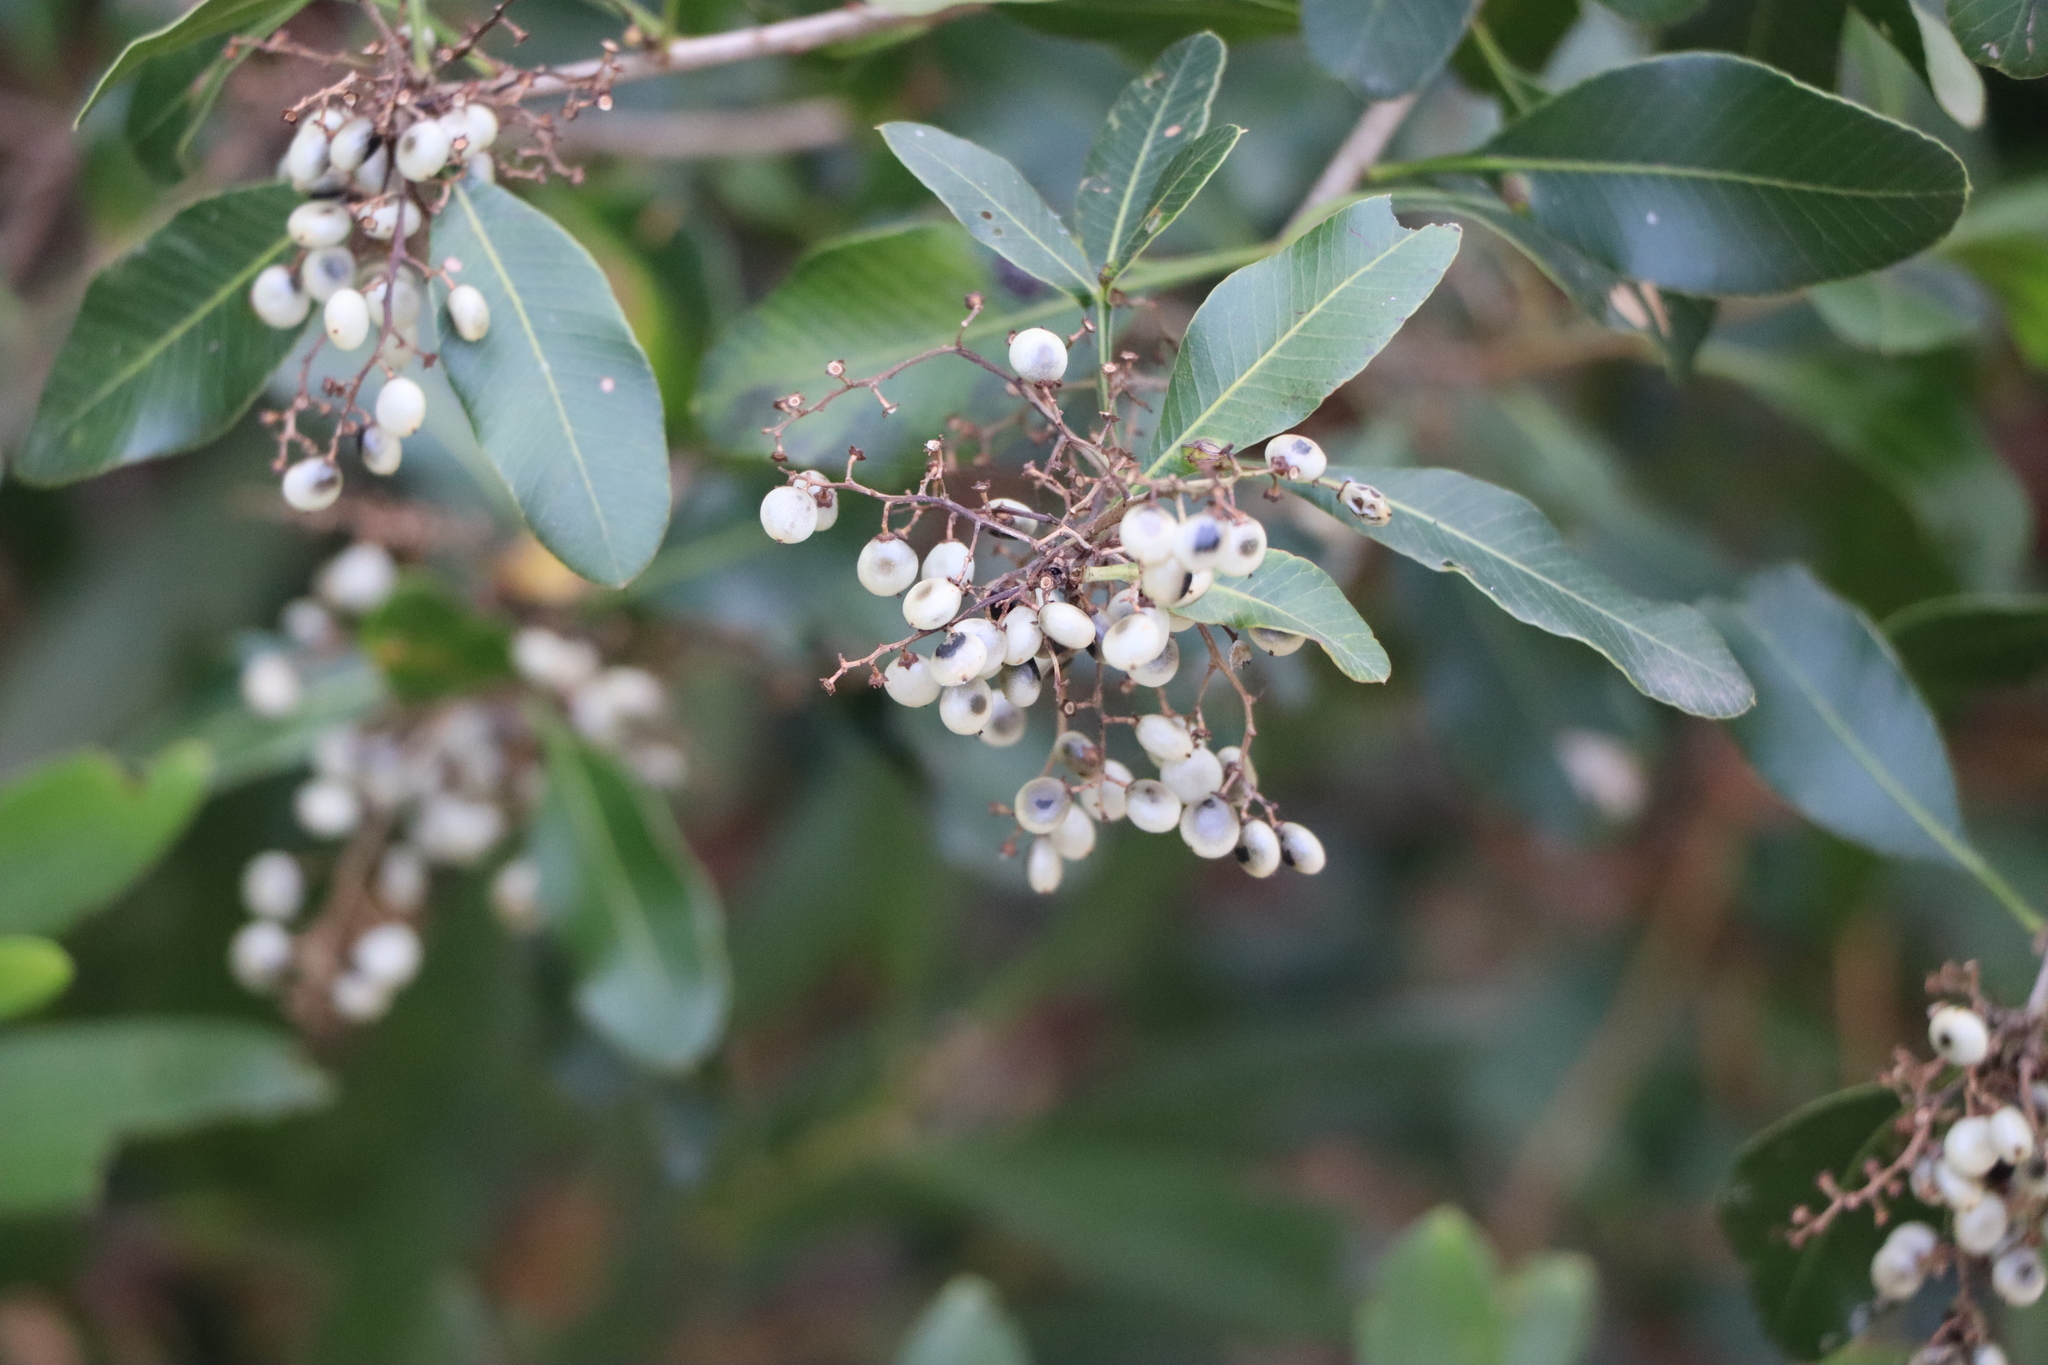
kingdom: Plantae
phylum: Tracheophyta
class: Magnoliopsida
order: Sapindales
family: Anacardiaceae
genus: Lithraea
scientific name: Lithraea brasiliensis
